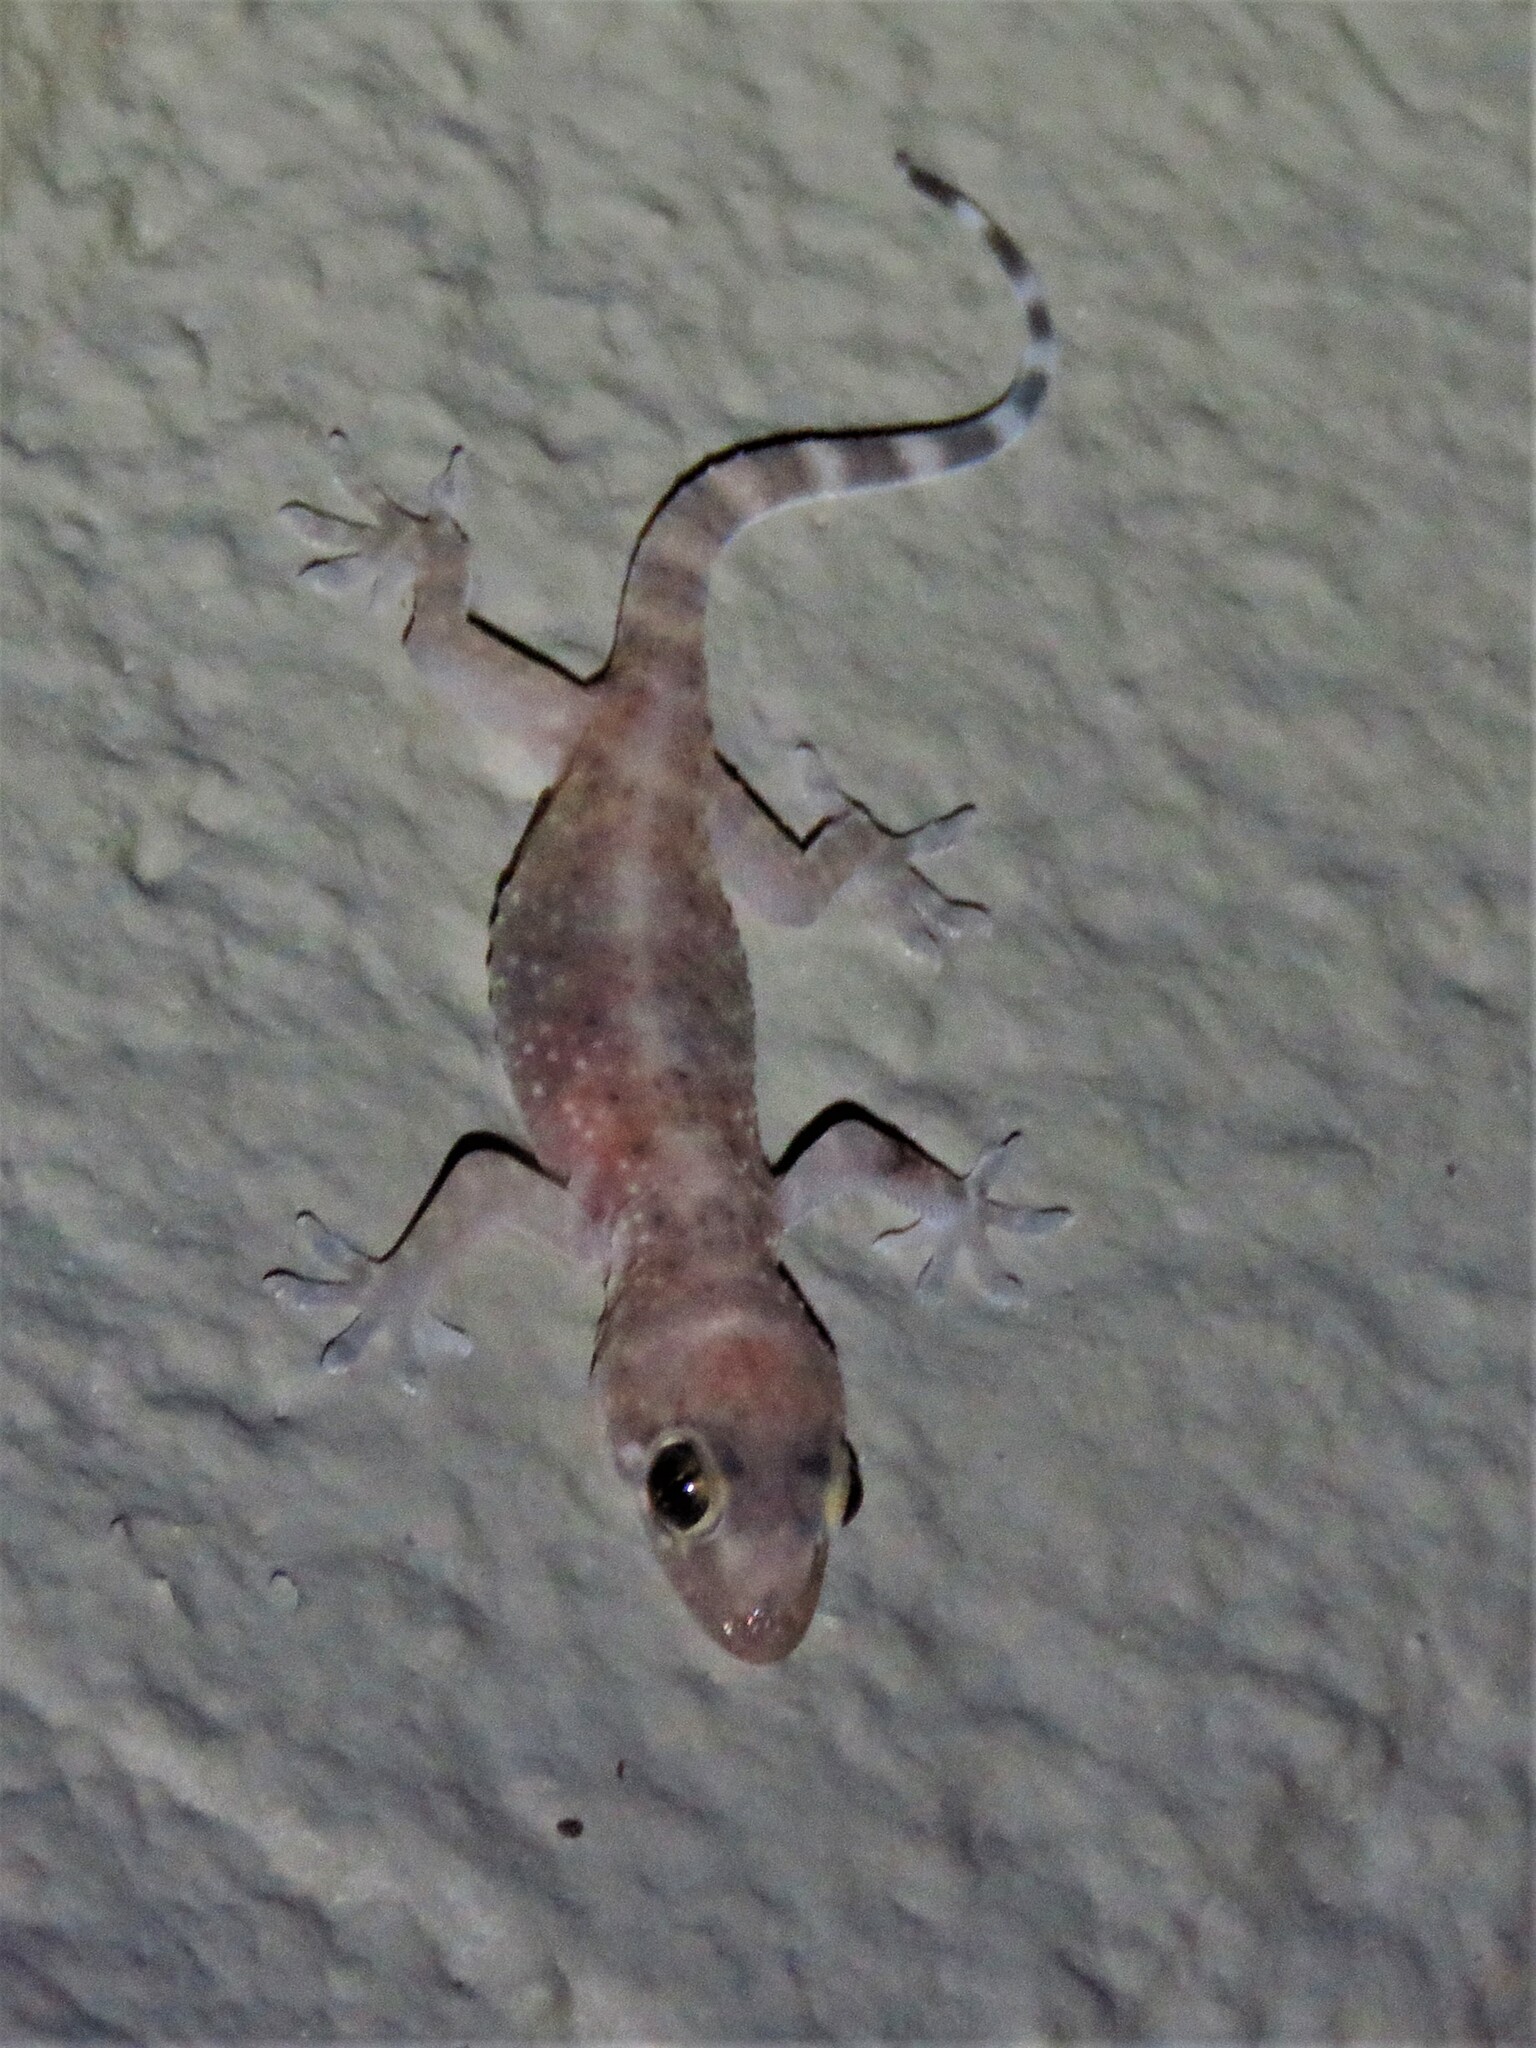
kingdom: Animalia
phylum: Chordata
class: Squamata
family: Gekkonidae
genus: Hemidactylus
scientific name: Hemidactylus turcicus
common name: Turkish gecko
